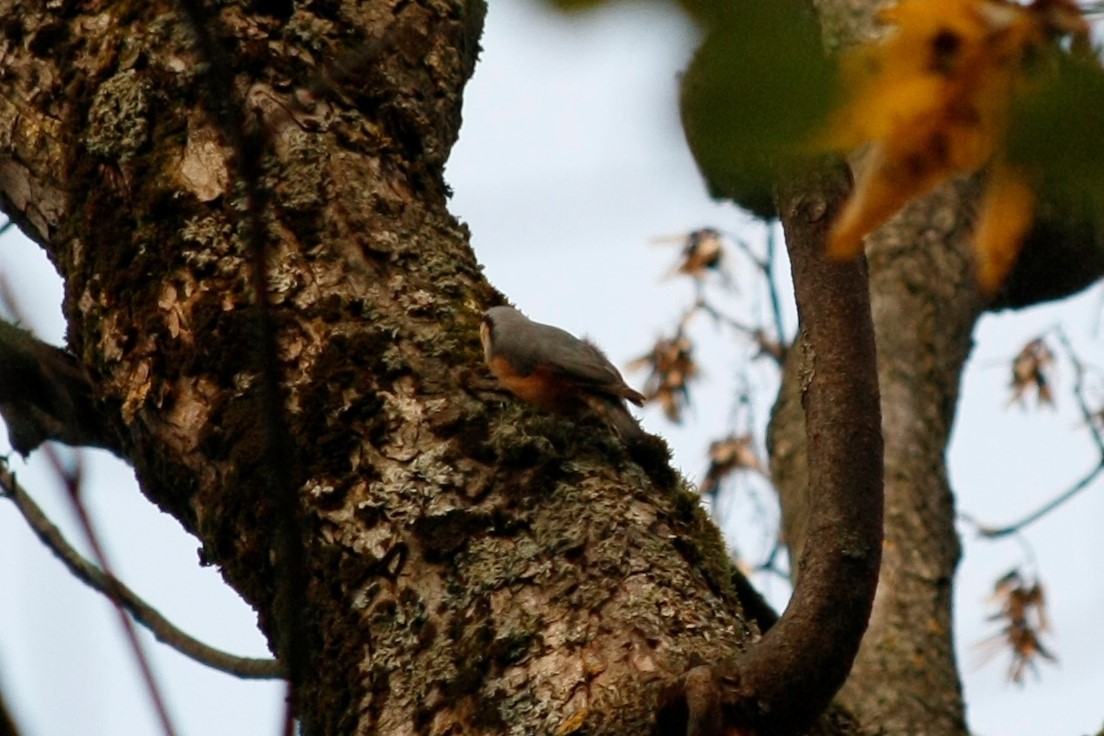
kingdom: Animalia
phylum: Chordata
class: Aves
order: Passeriformes
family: Sittidae
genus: Sitta
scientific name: Sitta europaea
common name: Eurasian nuthatch
